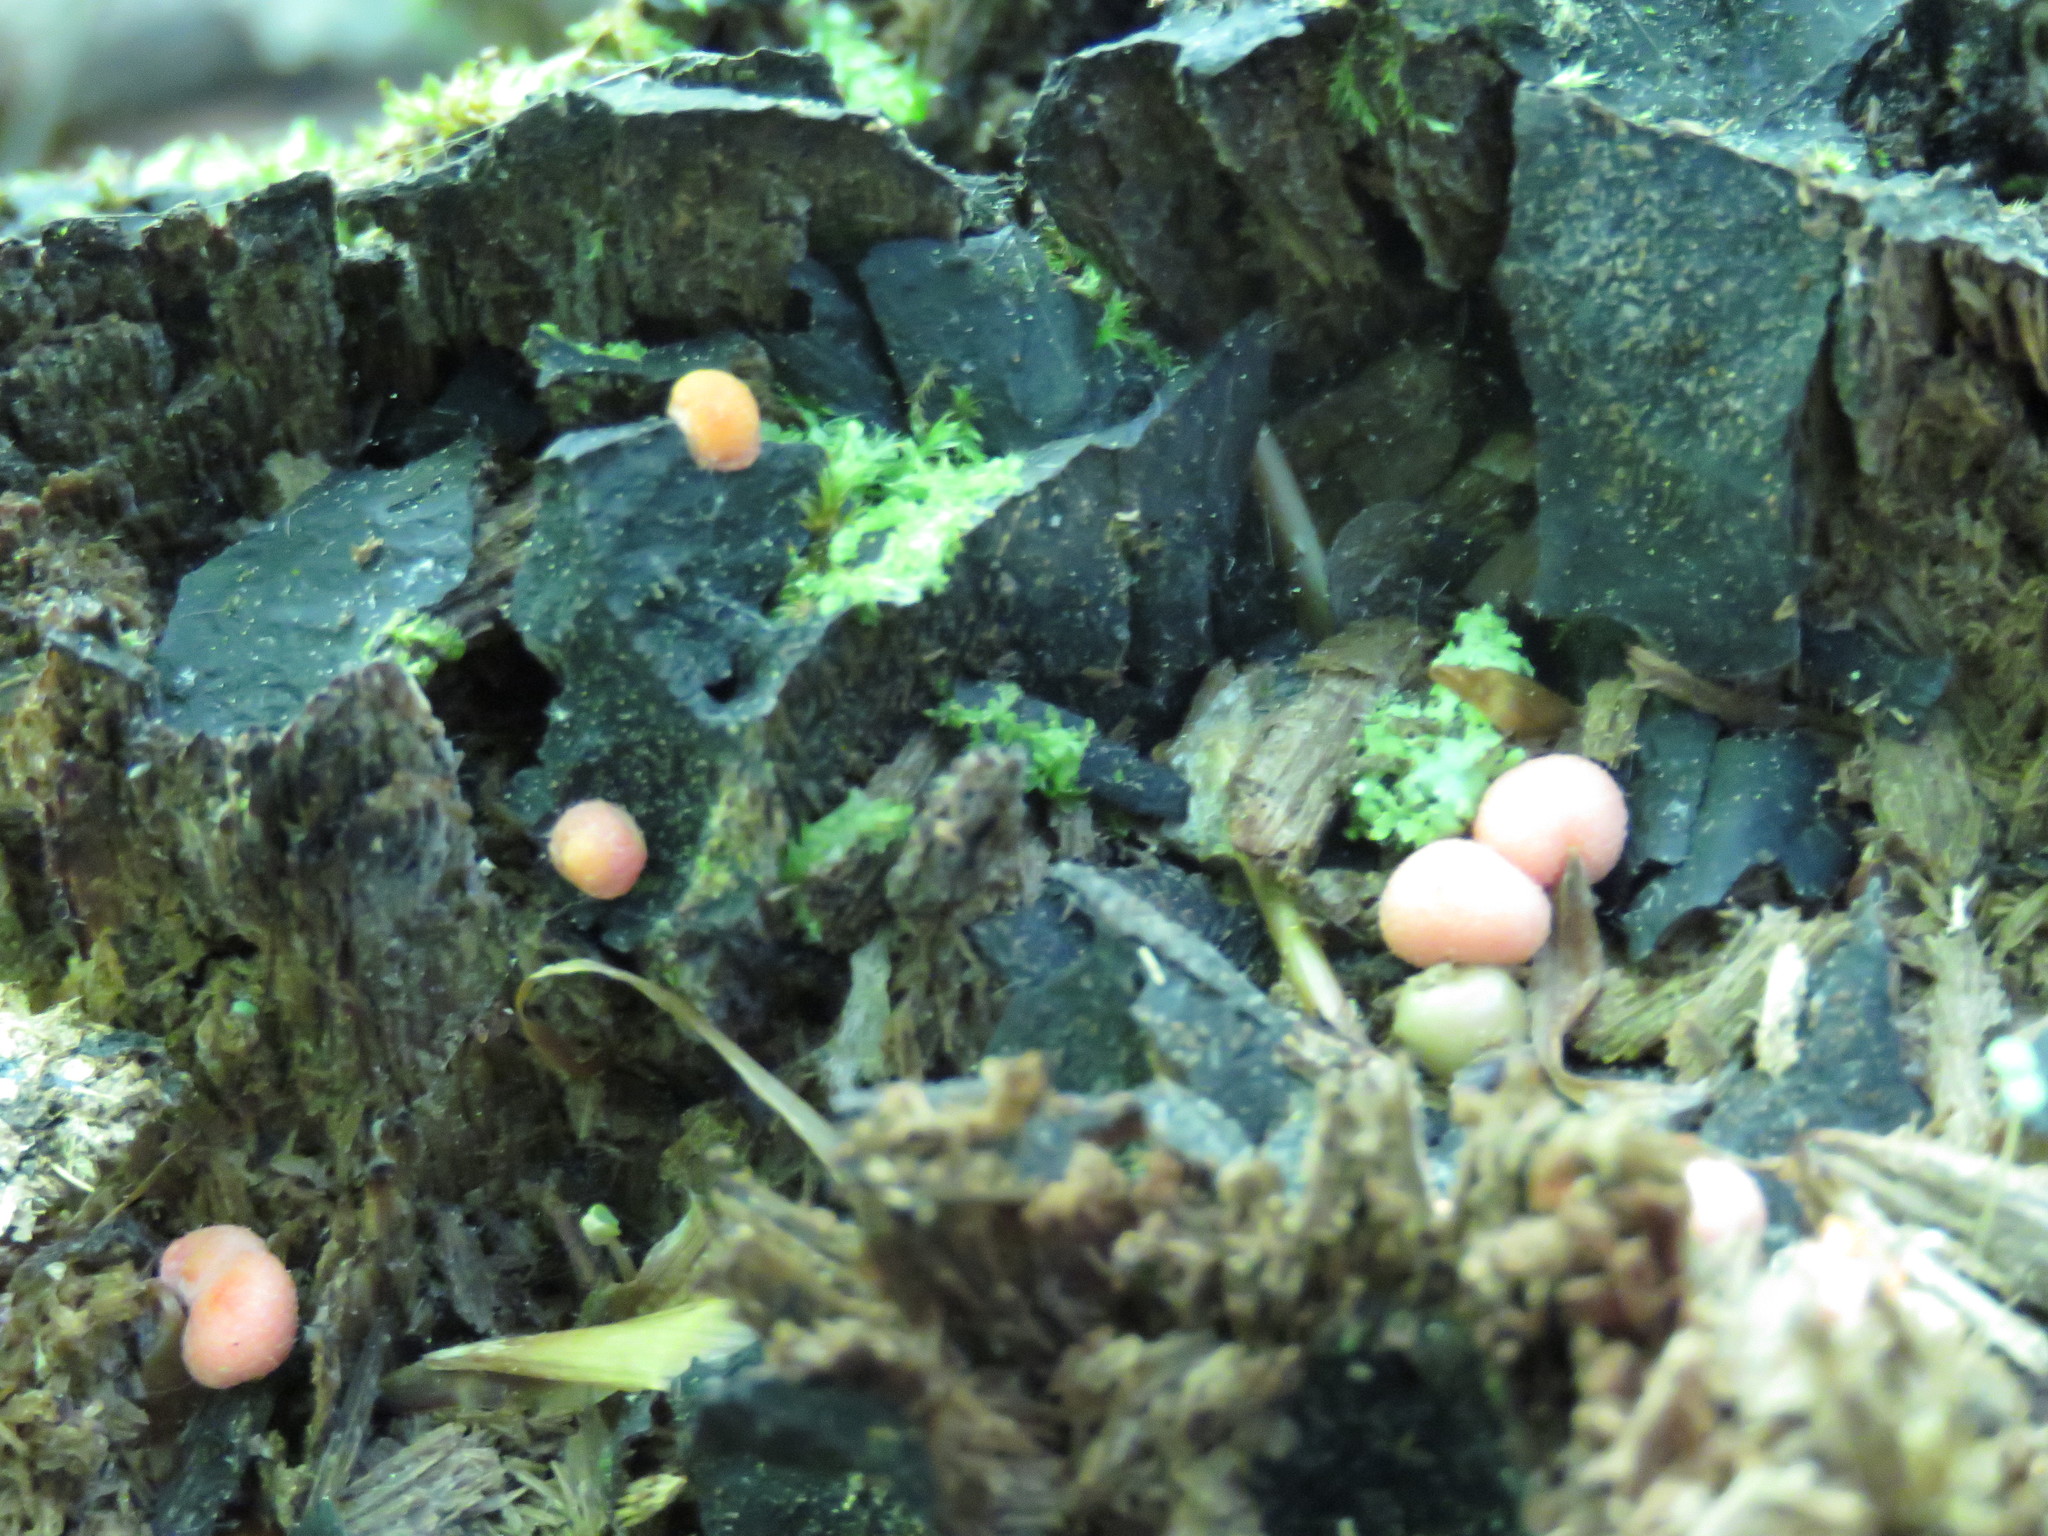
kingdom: Protozoa
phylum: Mycetozoa
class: Myxomycetes
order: Cribrariales
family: Tubiferaceae
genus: Lycogala
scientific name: Lycogala epidendrum
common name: Wolf's milk
